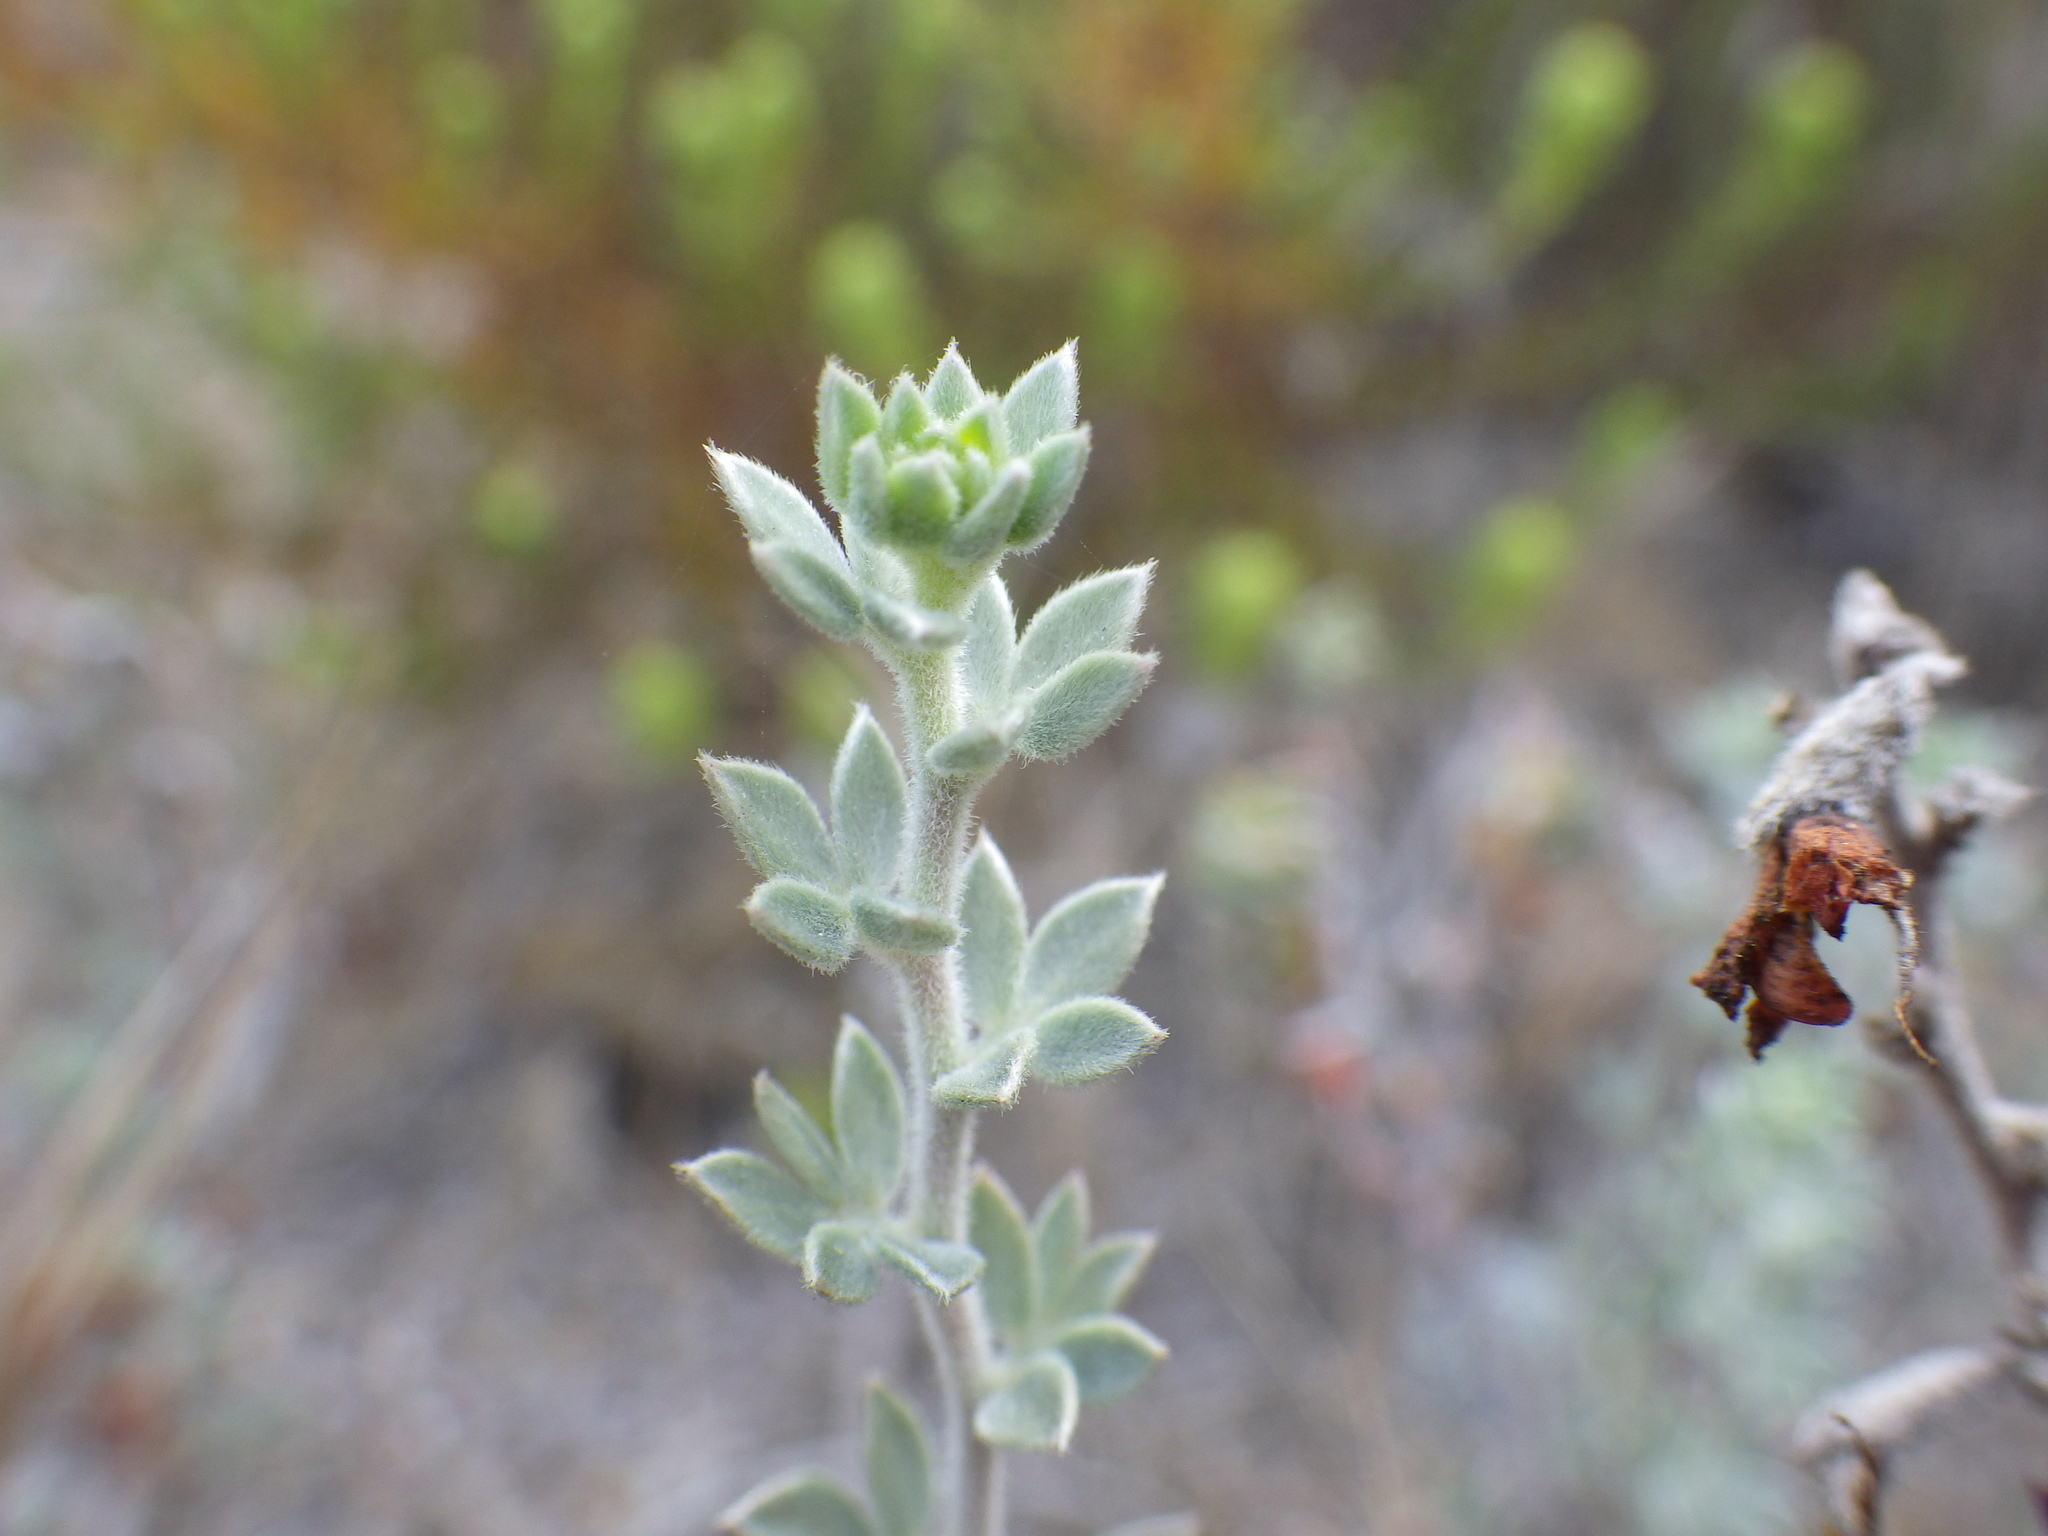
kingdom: Plantae
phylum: Tracheophyta
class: Magnoliopsida
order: Fabales
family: Fabaceae
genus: Acmispon
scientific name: Acmispon argophyllus
